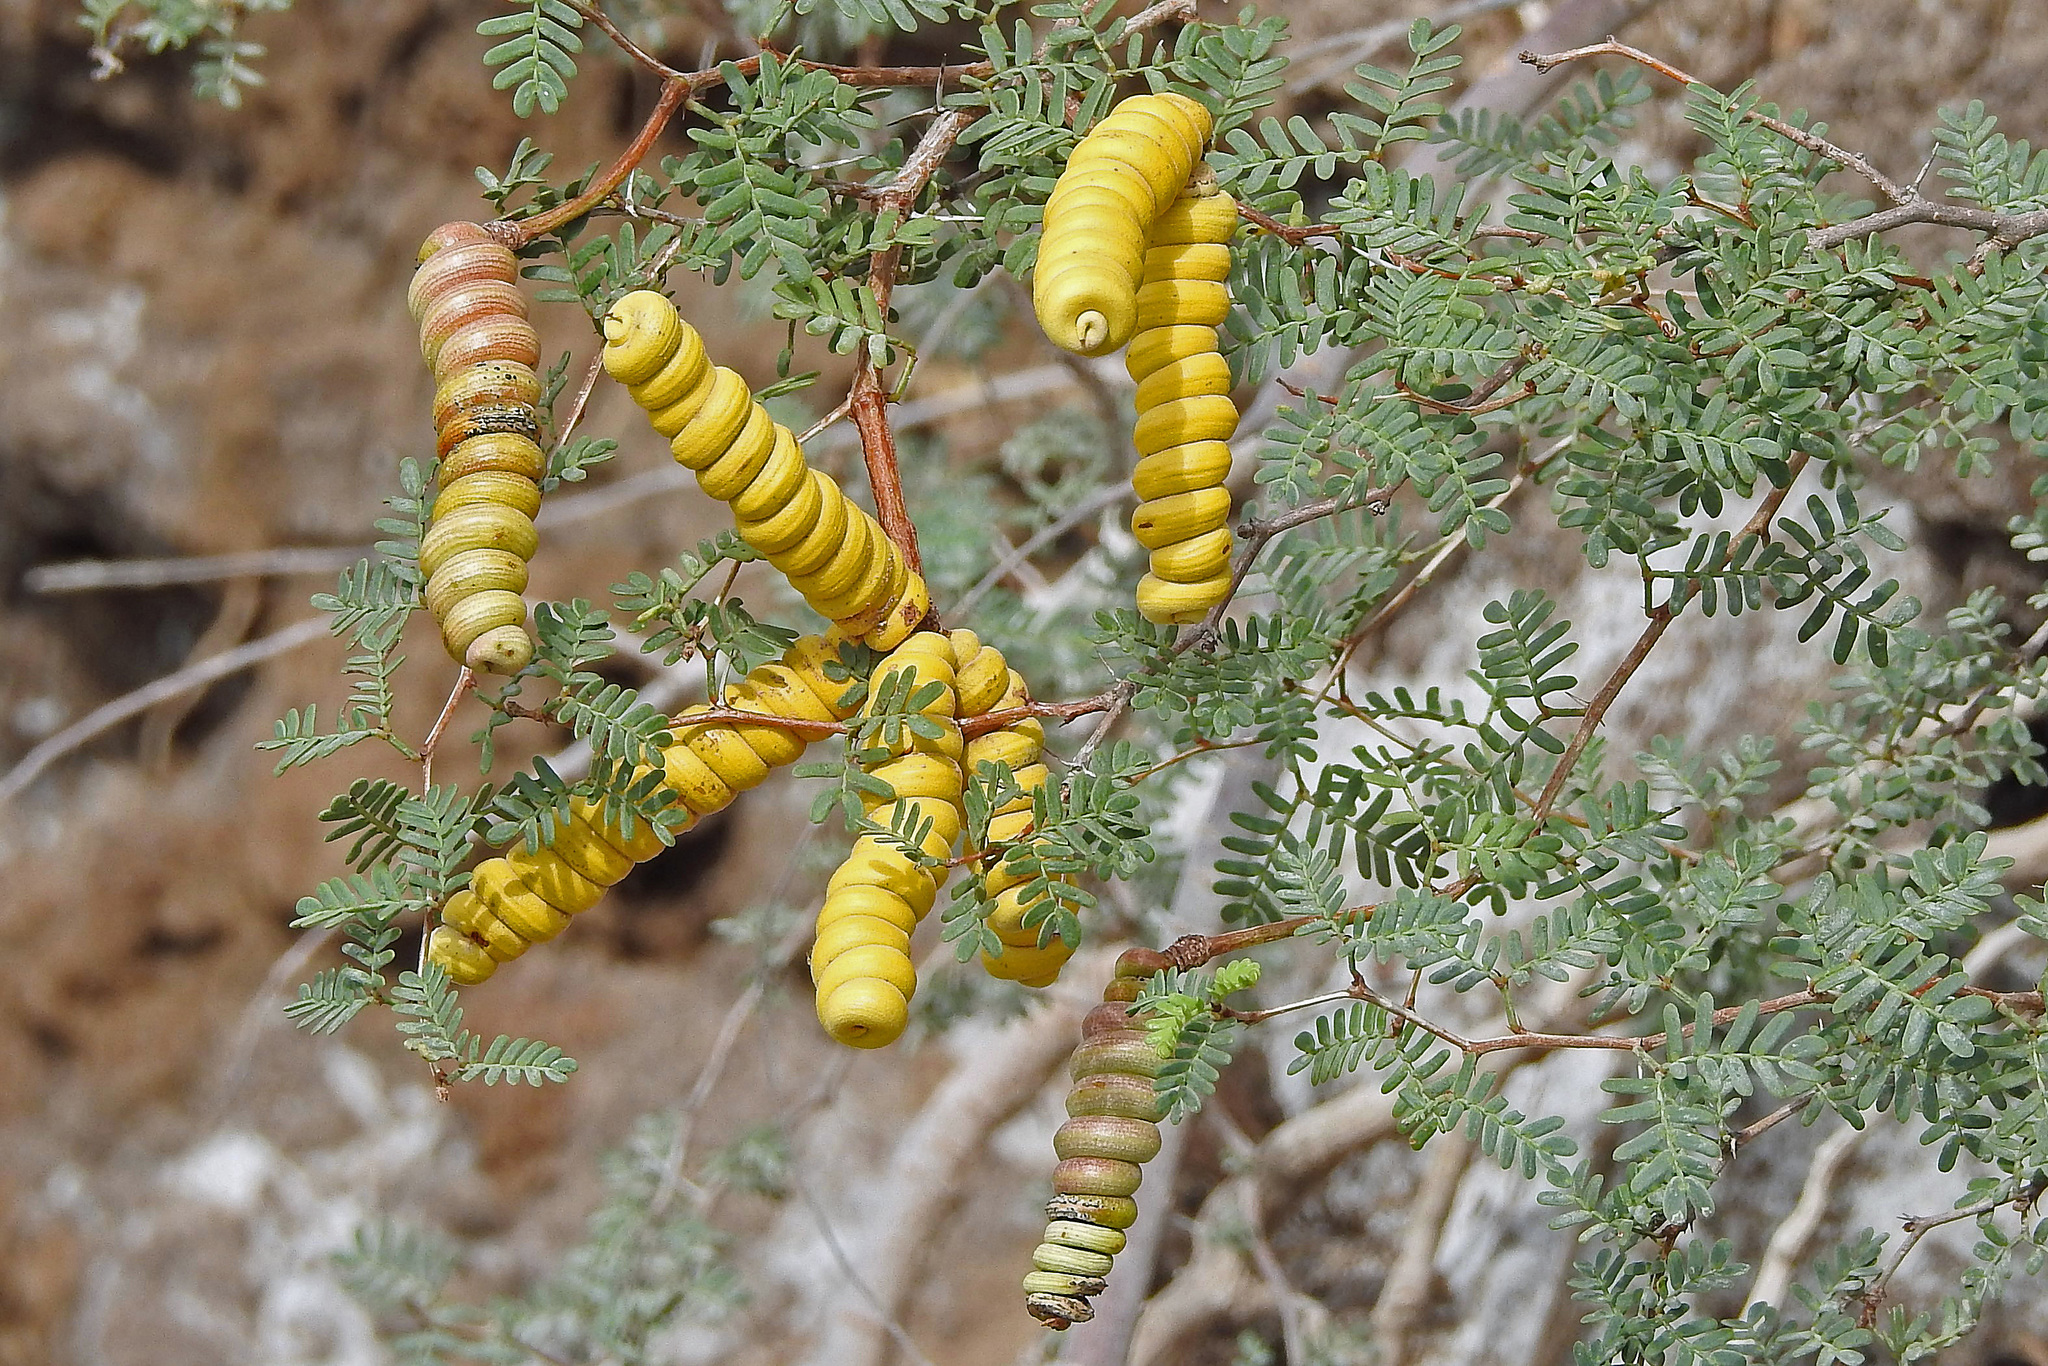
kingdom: Plantae
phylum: Tracheophyta
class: Magnoliopsida
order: Fabales
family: Fabaceae
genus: Prosopis
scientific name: Prosopis strombulifera
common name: Creeping mesquite
